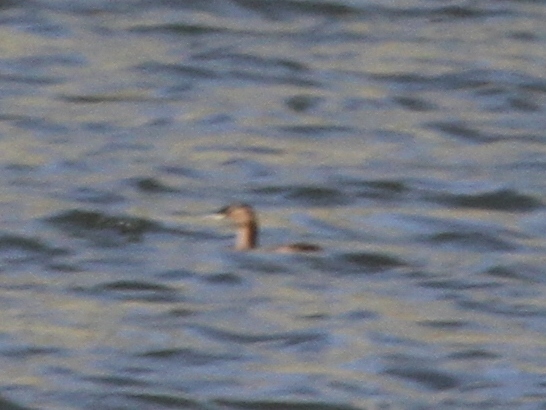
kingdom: Animalia
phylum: Chordata
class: Aves
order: Podicipediformes
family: Podicipedidae
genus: Tachybaptus
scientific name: Tachybaptus ruficollis
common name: Little grebe
